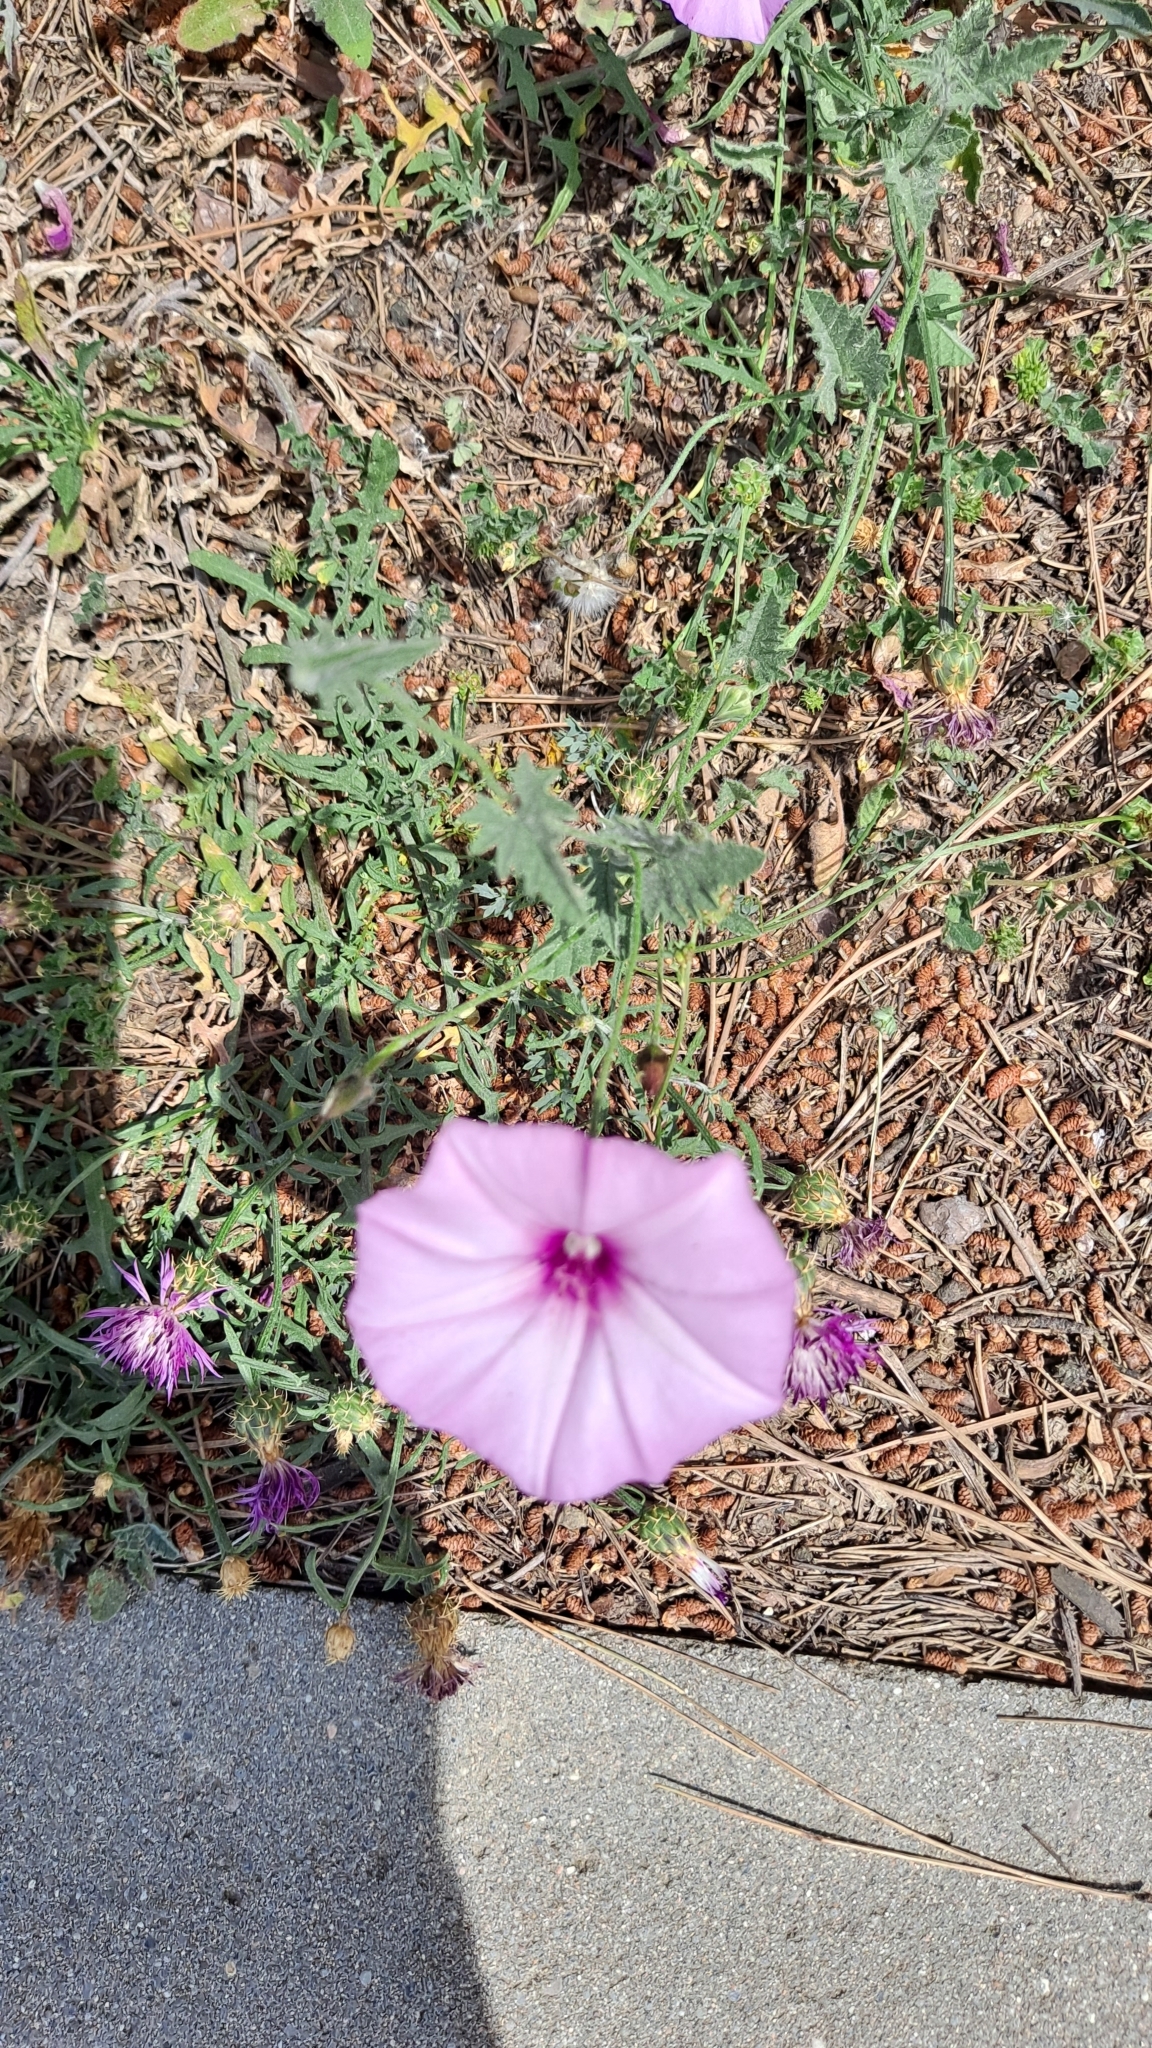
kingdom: Plantae
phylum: Tracheophyta
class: Magnoliopsida
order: Solanales
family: Convolvulaceae
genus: Convolvulus
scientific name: Convolvulus althaeoides
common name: Mallow bindweed
